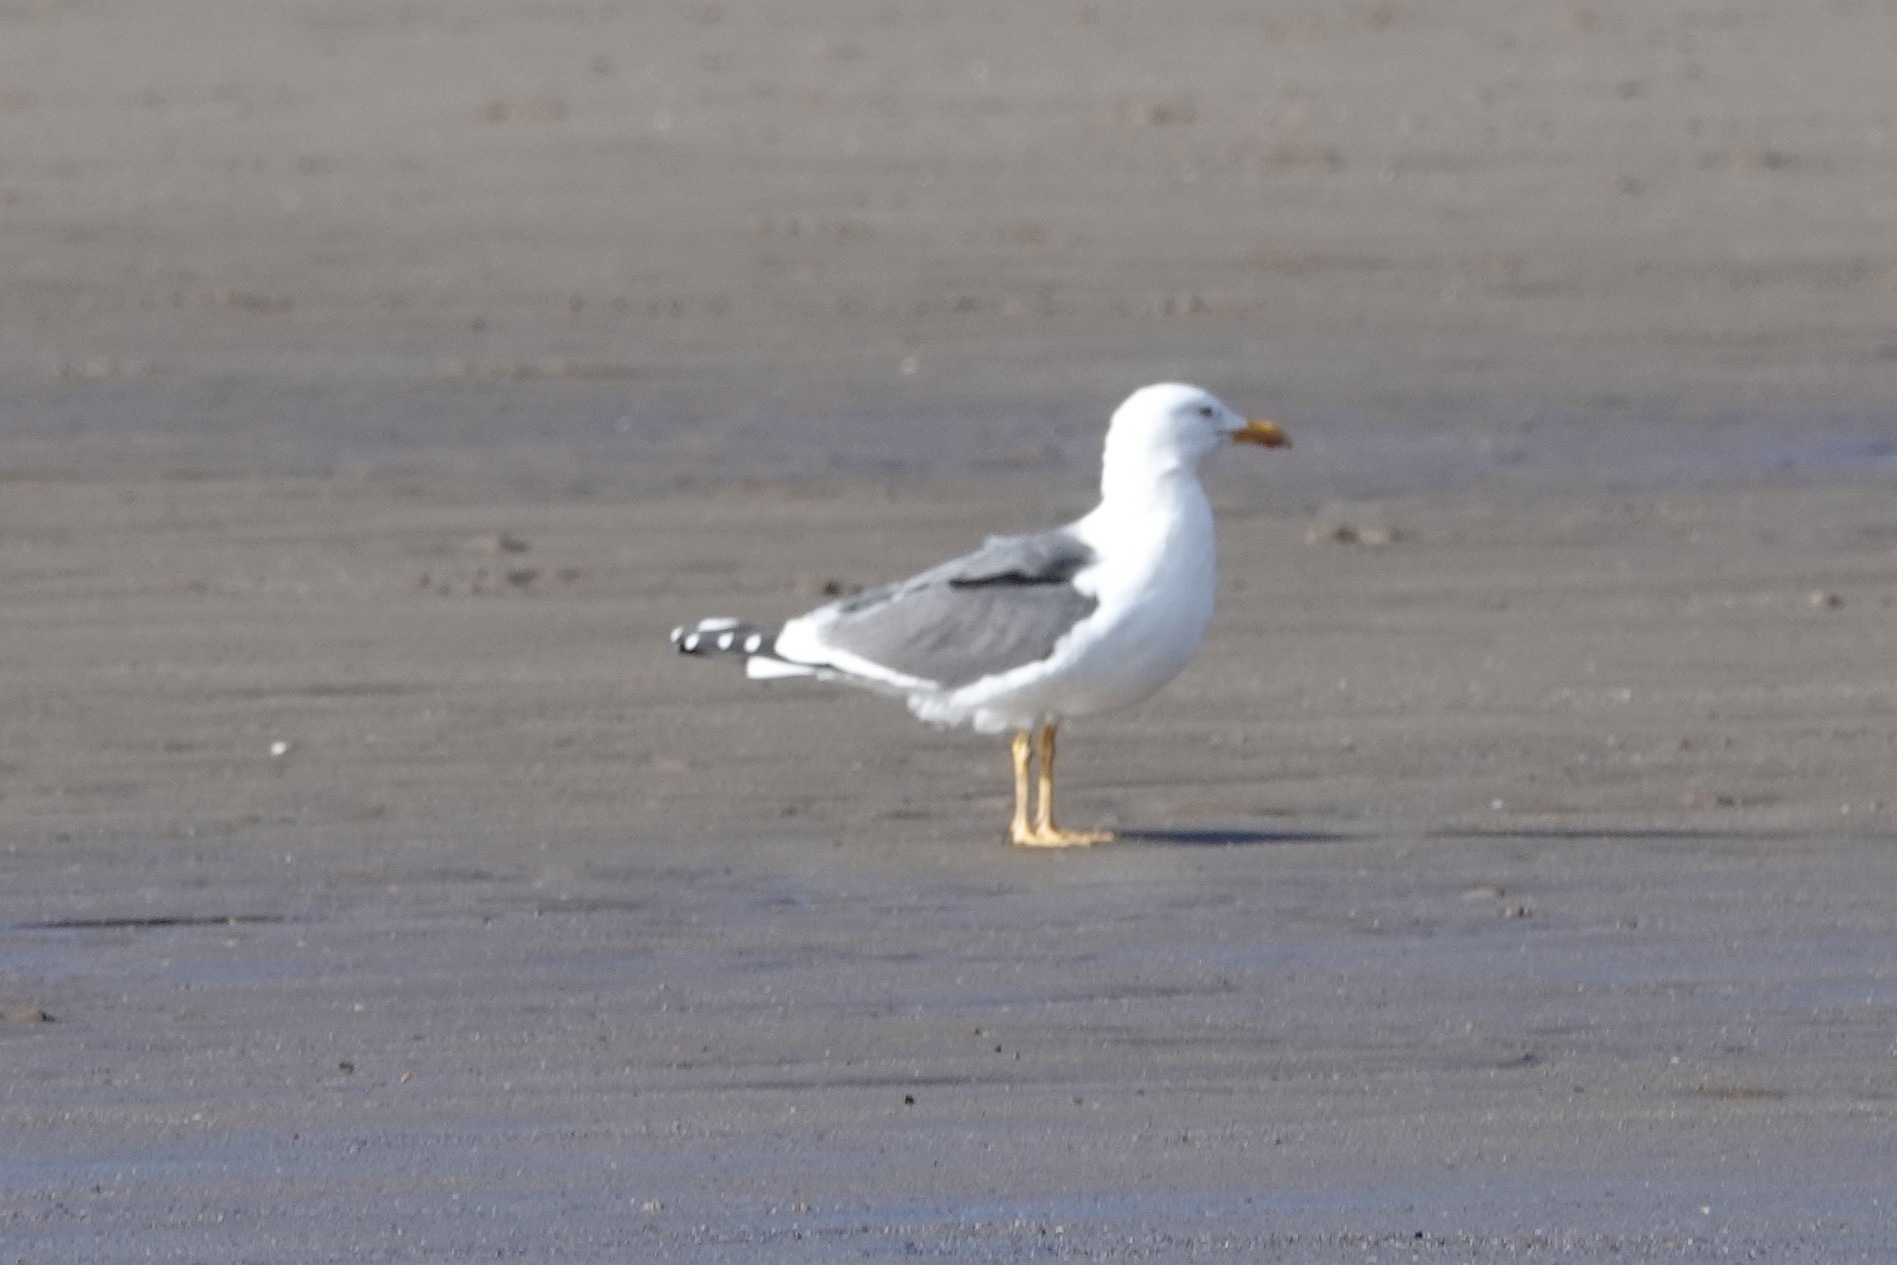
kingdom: Animalia
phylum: Chordata
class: Aves
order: Charadriiformes
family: Laridae
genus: Larus
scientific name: Larus fuscus
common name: Lesser black-backed gull
